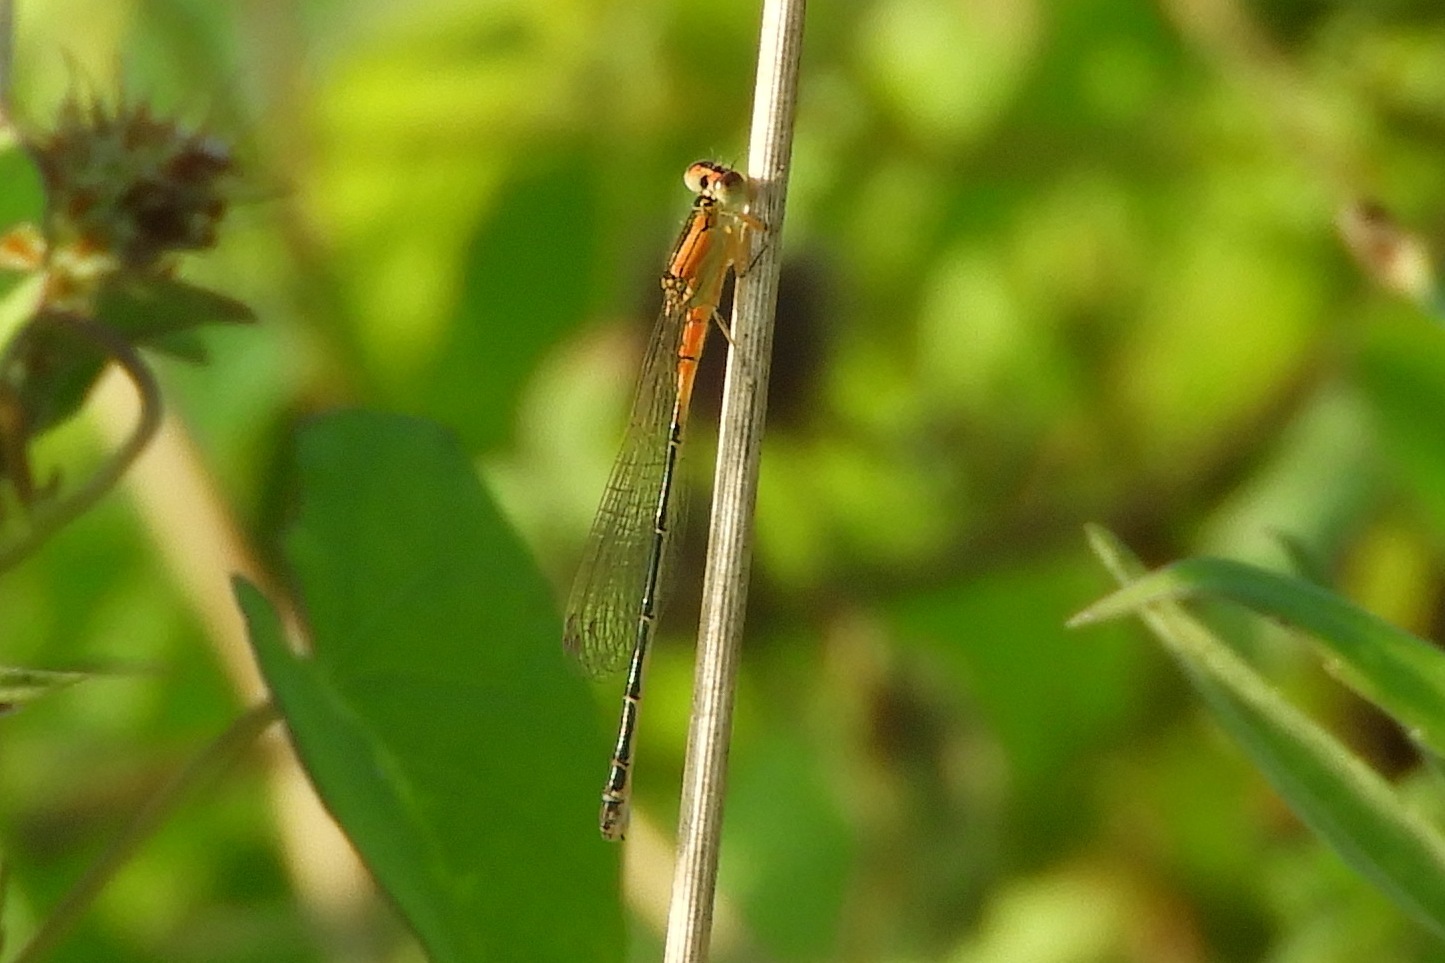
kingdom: Animalia
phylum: Arthropoda
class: Insecta
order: Odonata
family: Coenagrionidae
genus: Ischnura
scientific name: Ischnura verticalis
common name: Eastern forktail
